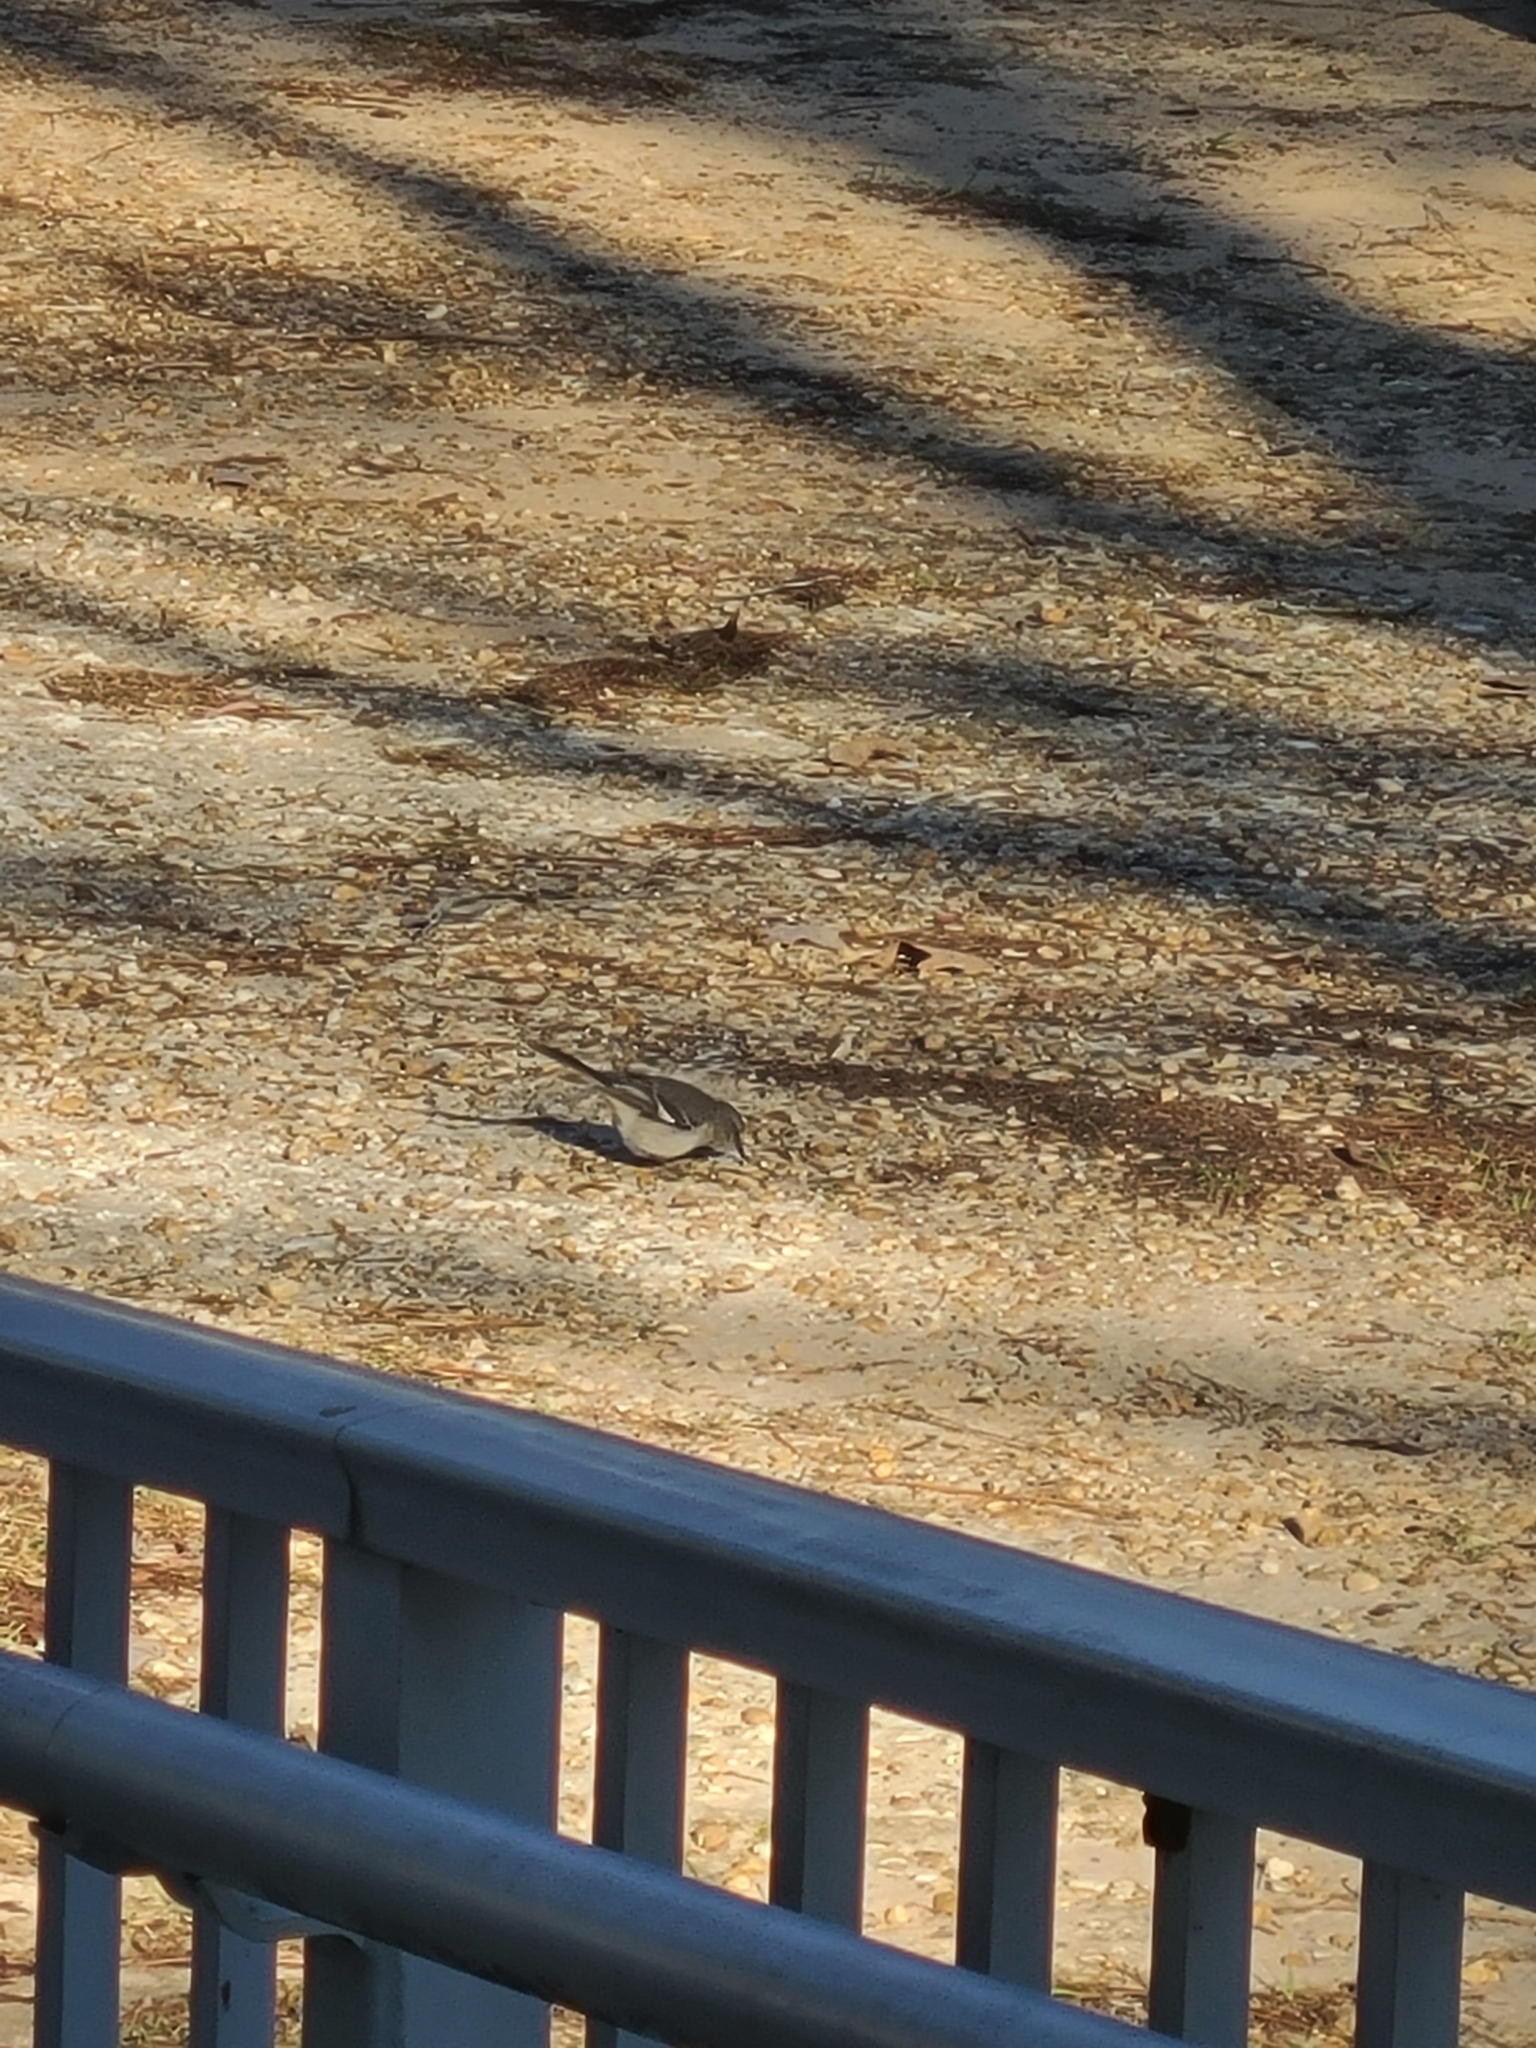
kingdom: Animalia
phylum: Chordata
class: Aves
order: Passeriformes
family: Mimidae
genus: Mimus
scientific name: Mimus polyglottos
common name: Northern mockingbird
